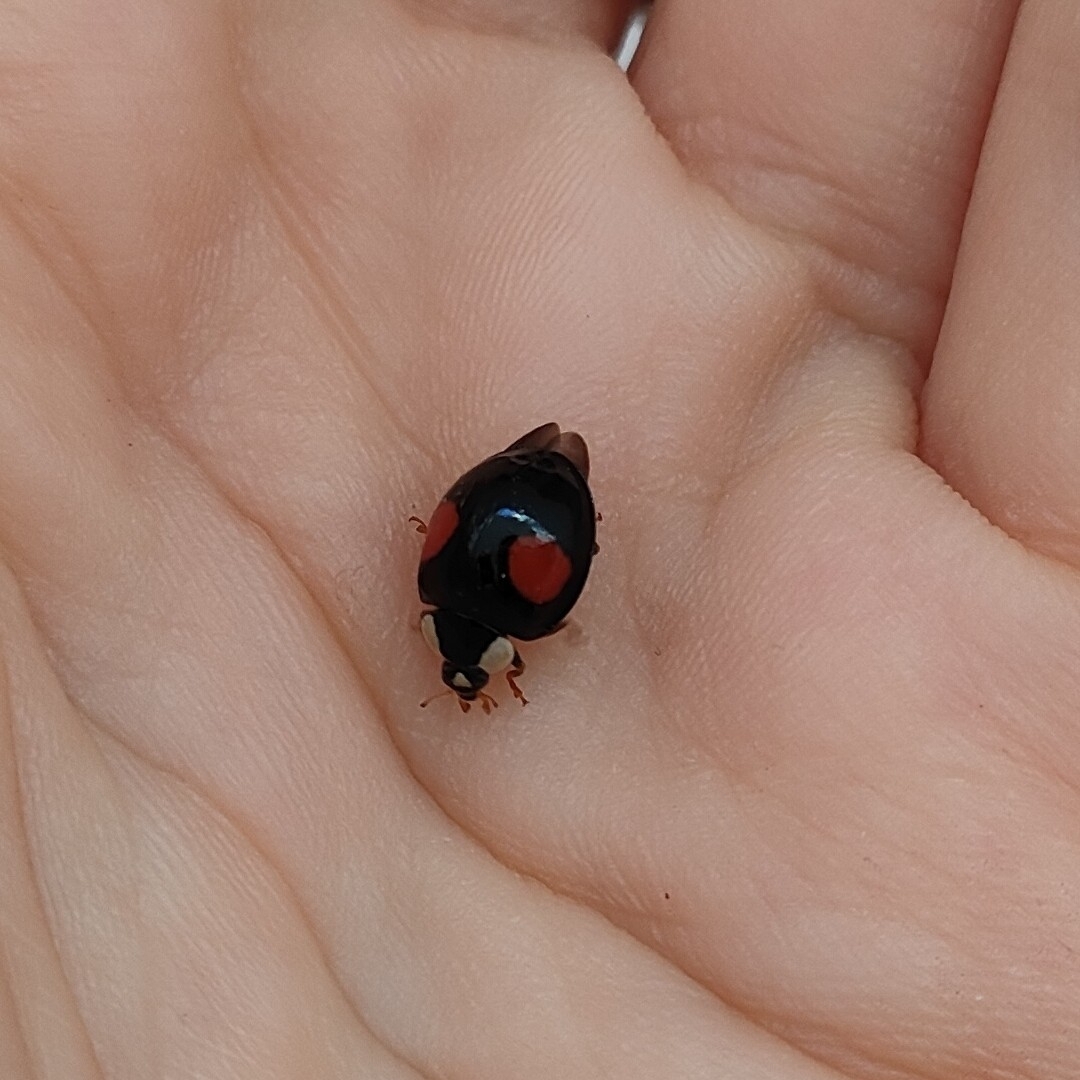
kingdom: Animalia
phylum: Arthropoda
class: Insecta
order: Coleoptera
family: Coccinellidae
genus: Harmonia
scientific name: Harmonia axyridis
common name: Harlequin ladybird
